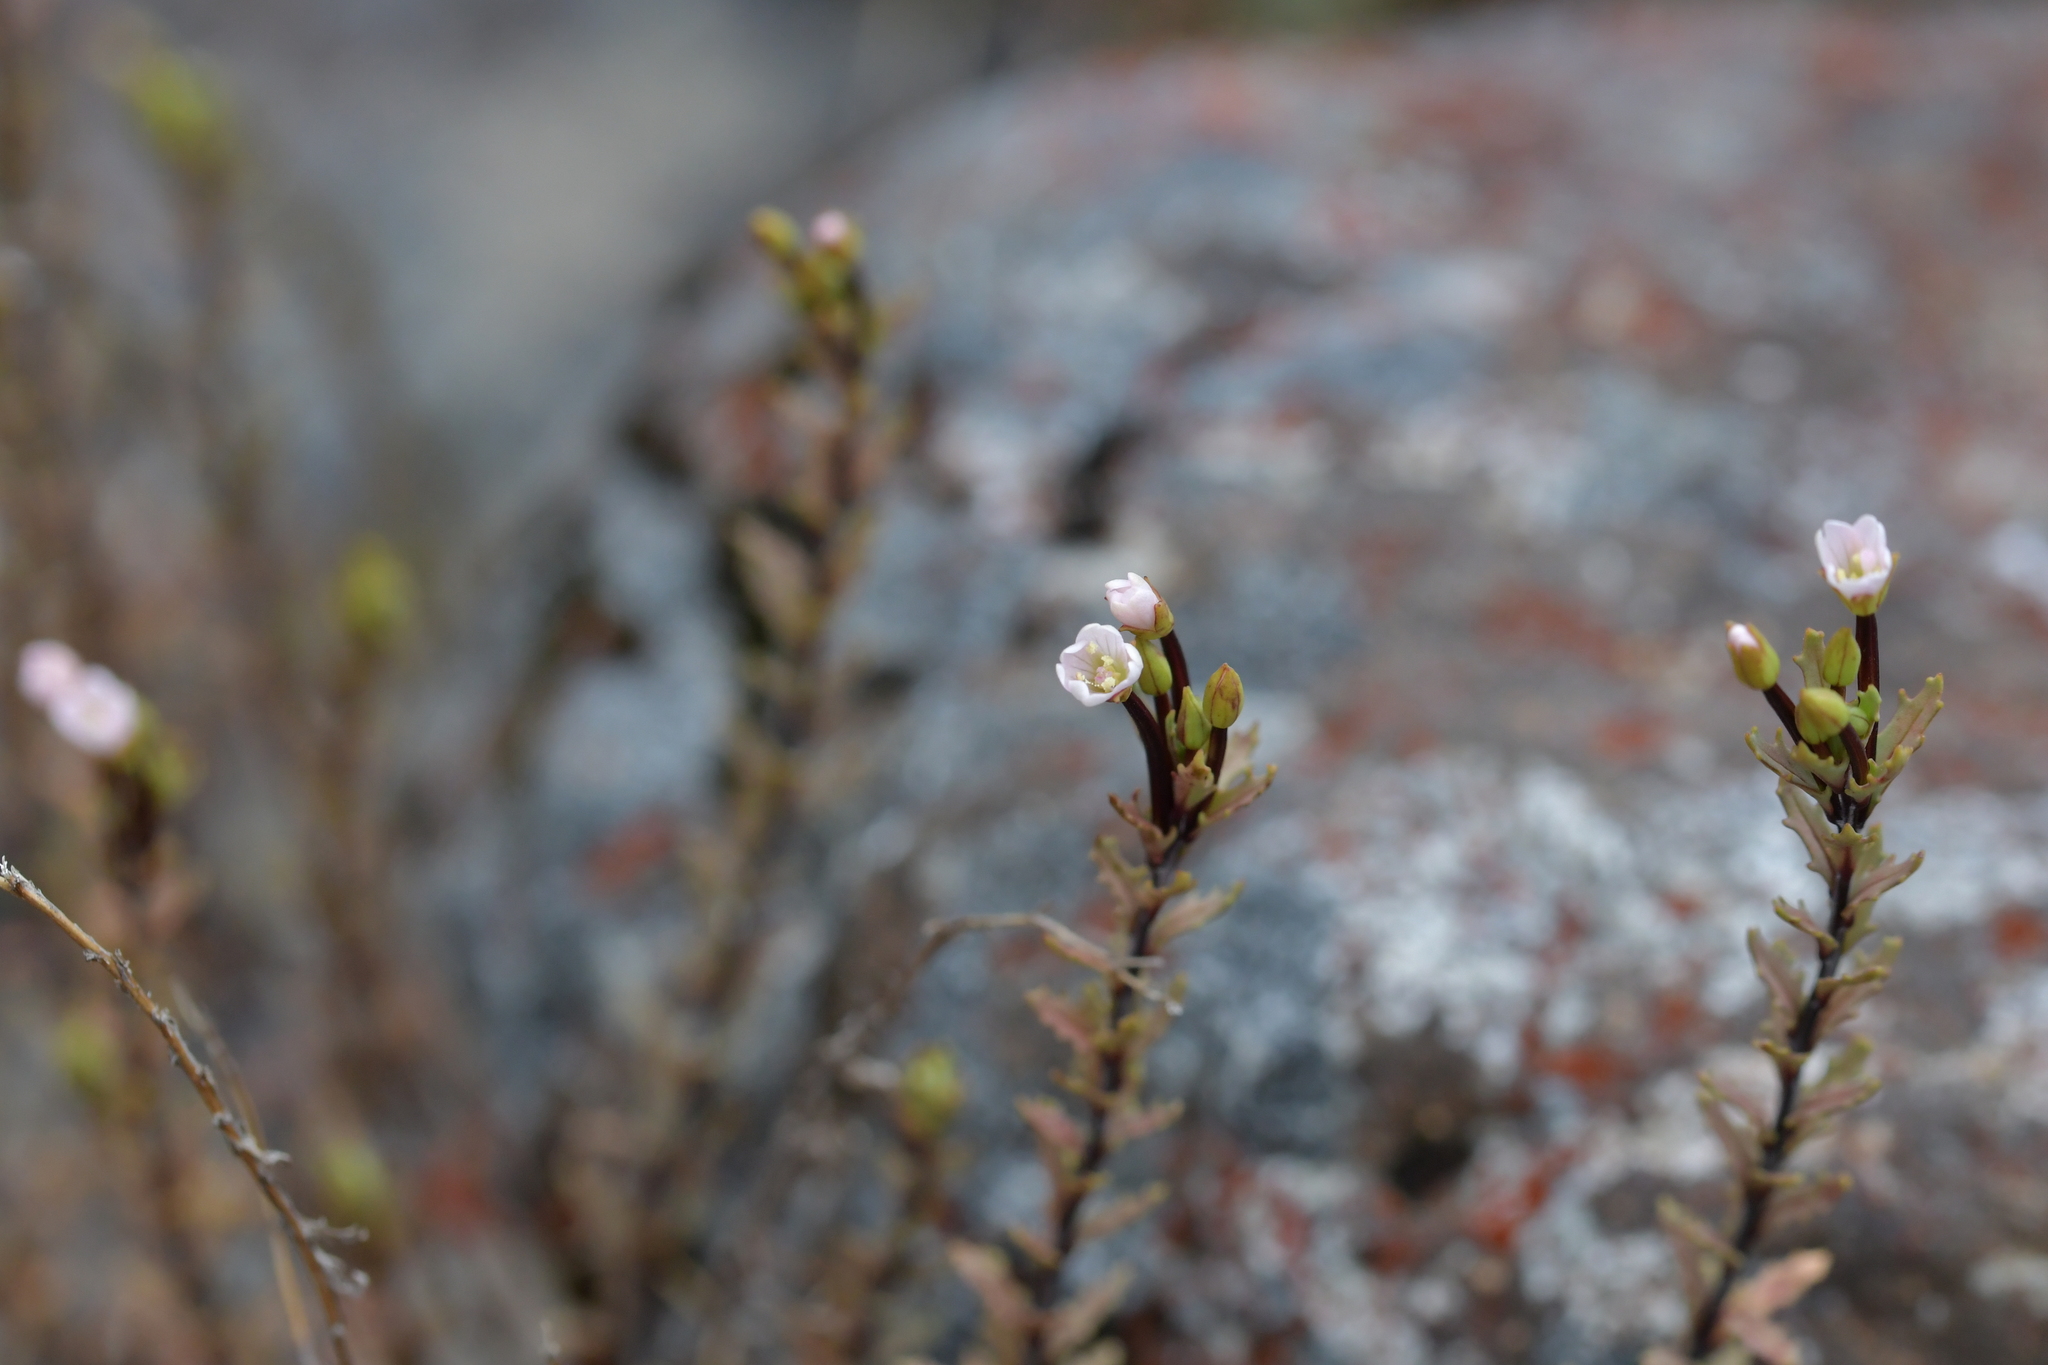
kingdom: Plantae
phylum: Tracheophyta
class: Magnoliopsida
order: Myrtales
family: Onagraceae
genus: Epilobium
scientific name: Epilobium melanocaulon
